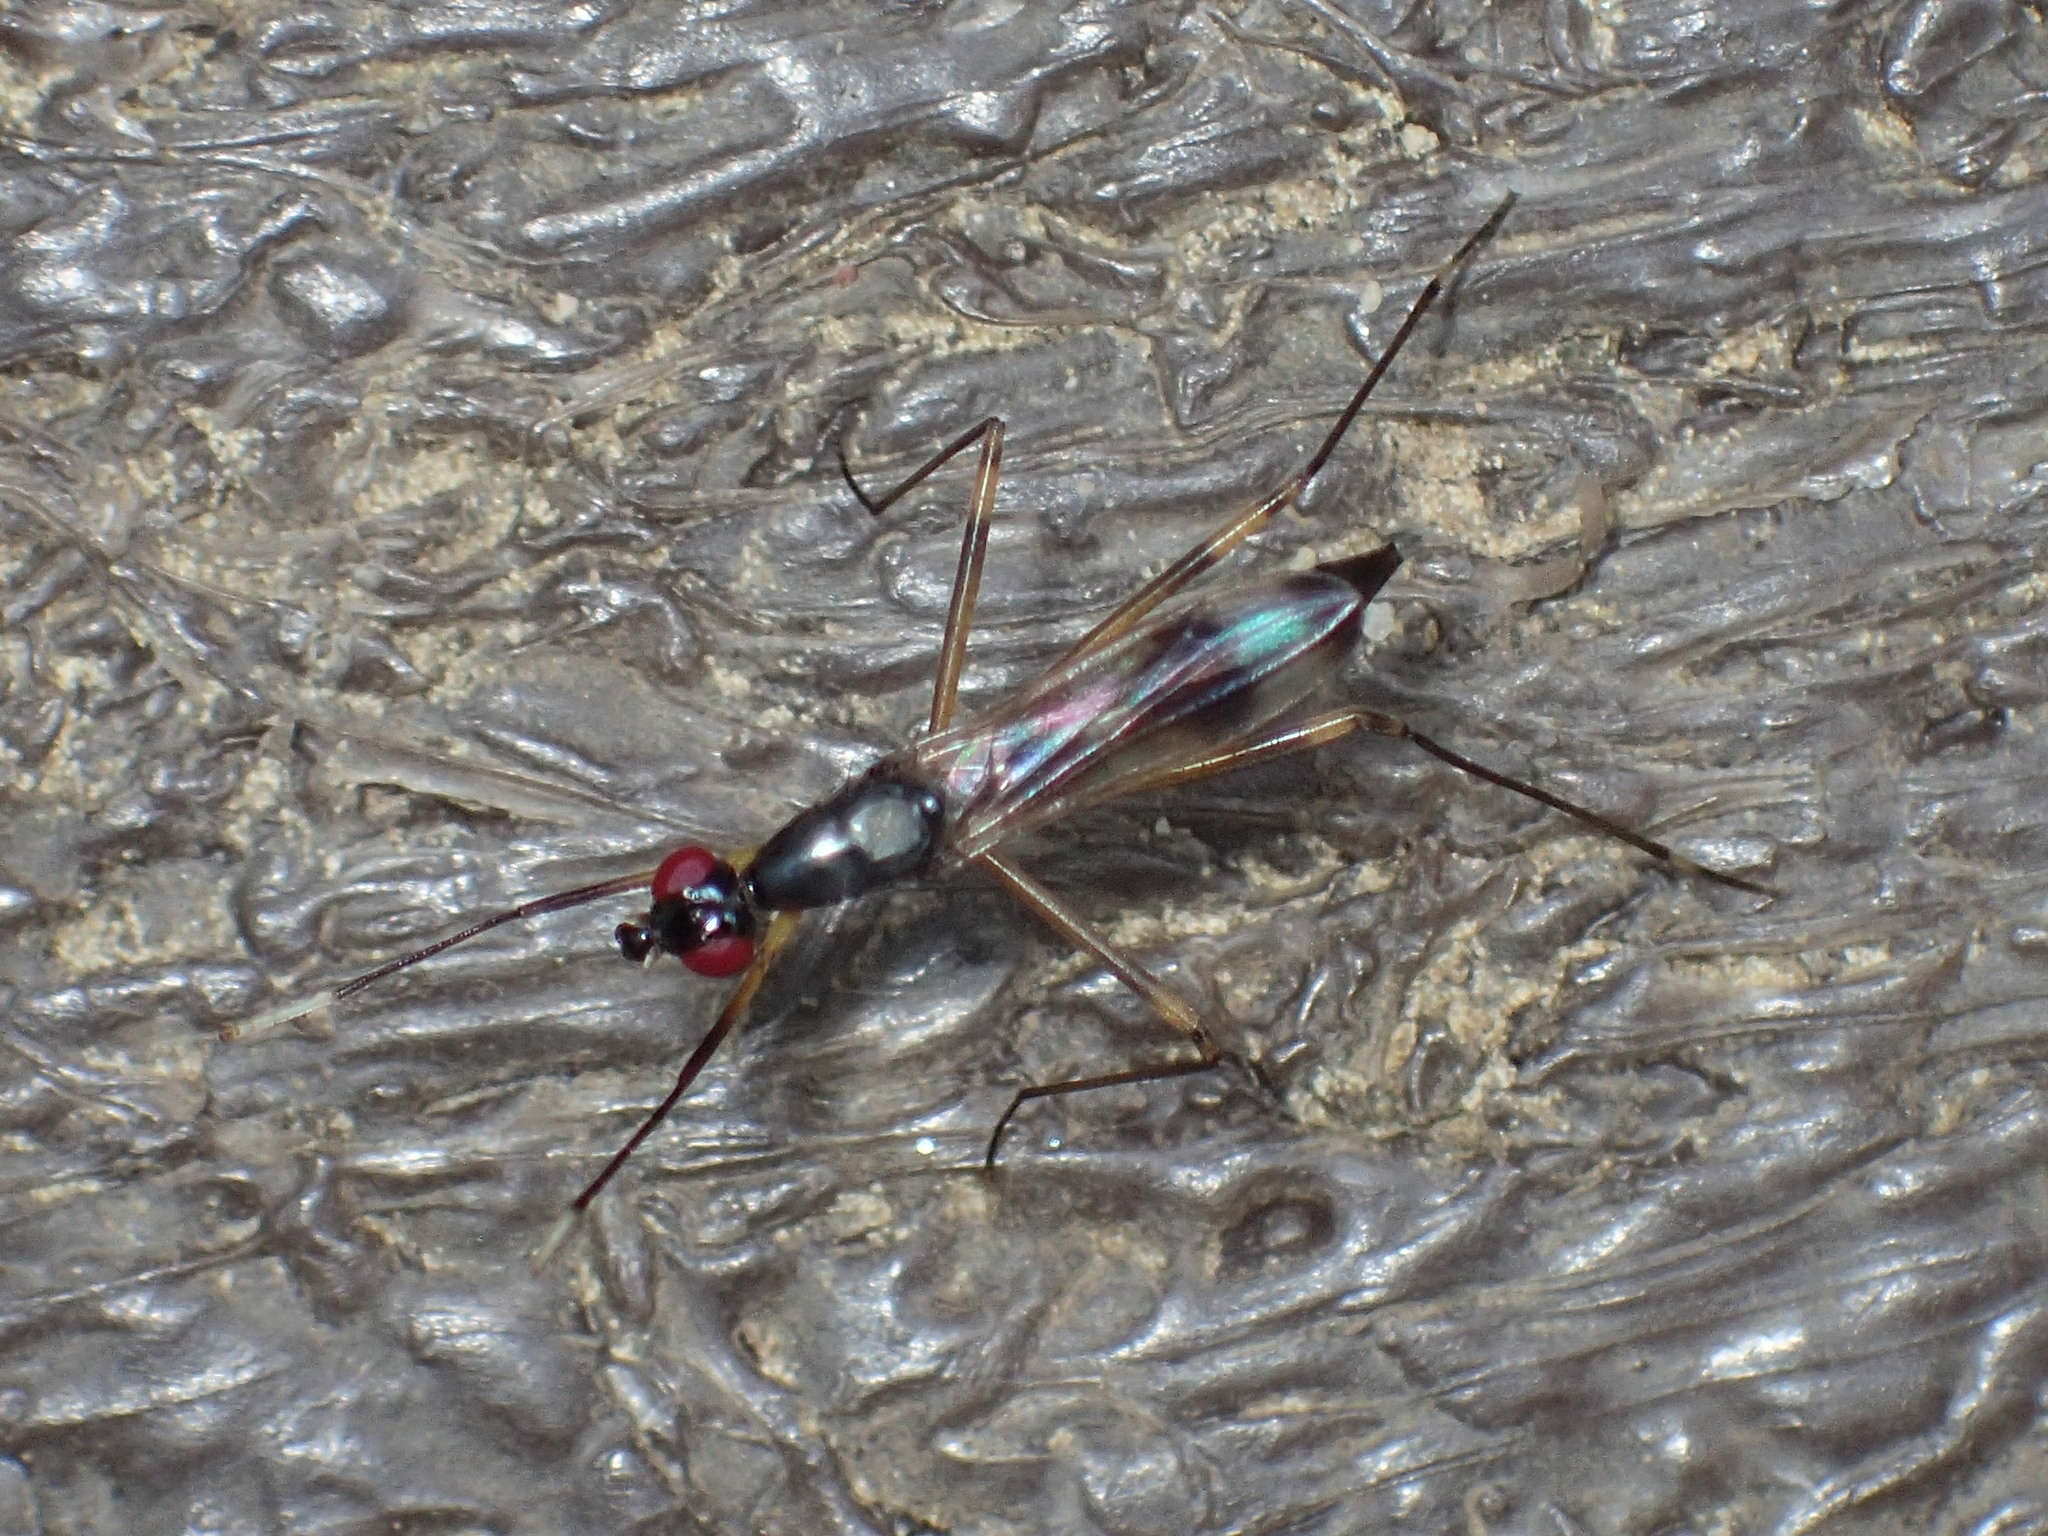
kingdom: Animalia
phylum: Arthropoda
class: Insecta
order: Diptera
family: Micropezidae
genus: Rainieria
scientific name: Rainieria antennaepes
